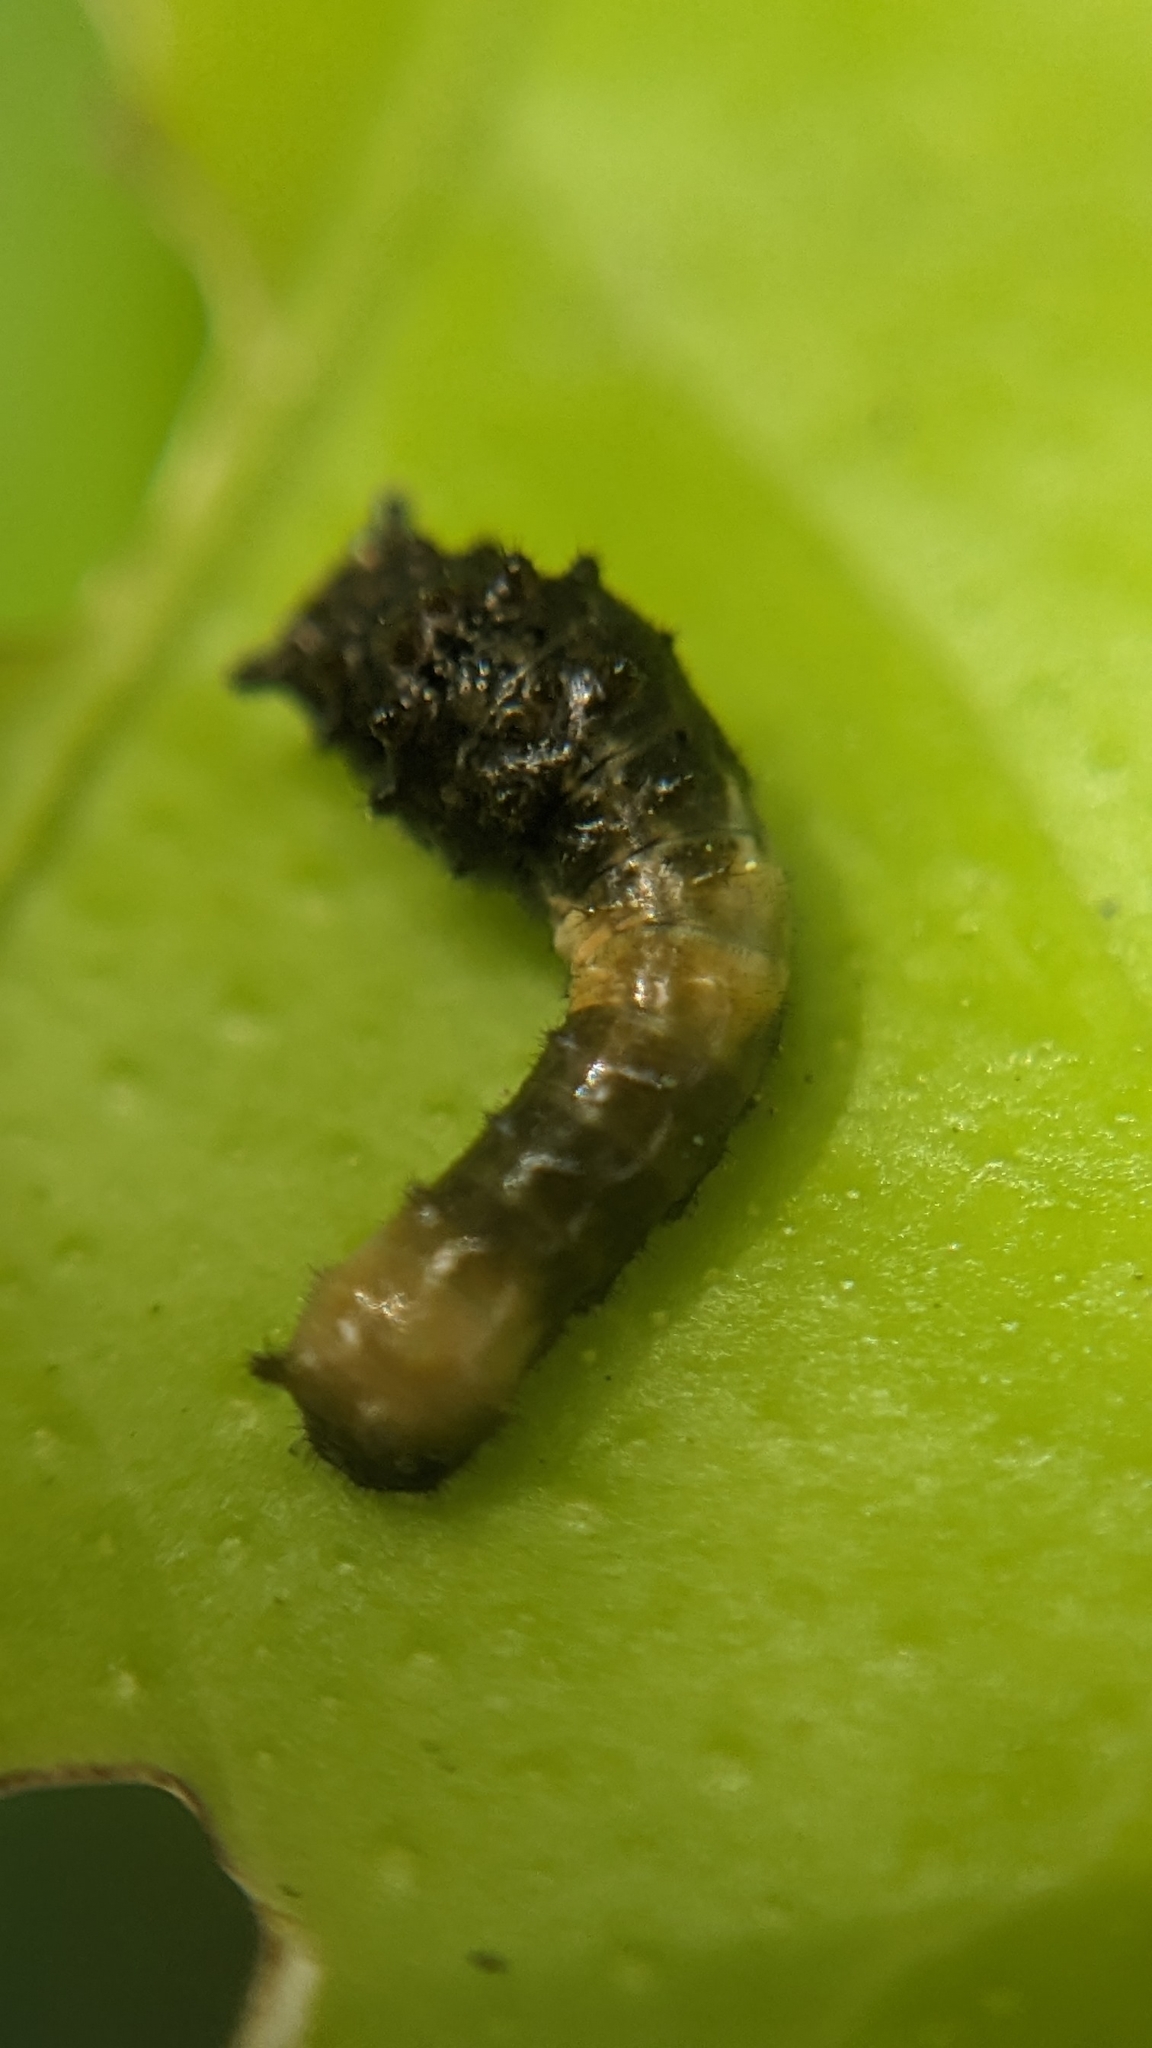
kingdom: Animalia
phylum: Arthropoda
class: Insecta
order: Lepidoptera
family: Papilionidae
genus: Papilio
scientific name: Papilio cresphontes
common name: Giant swallowtail
